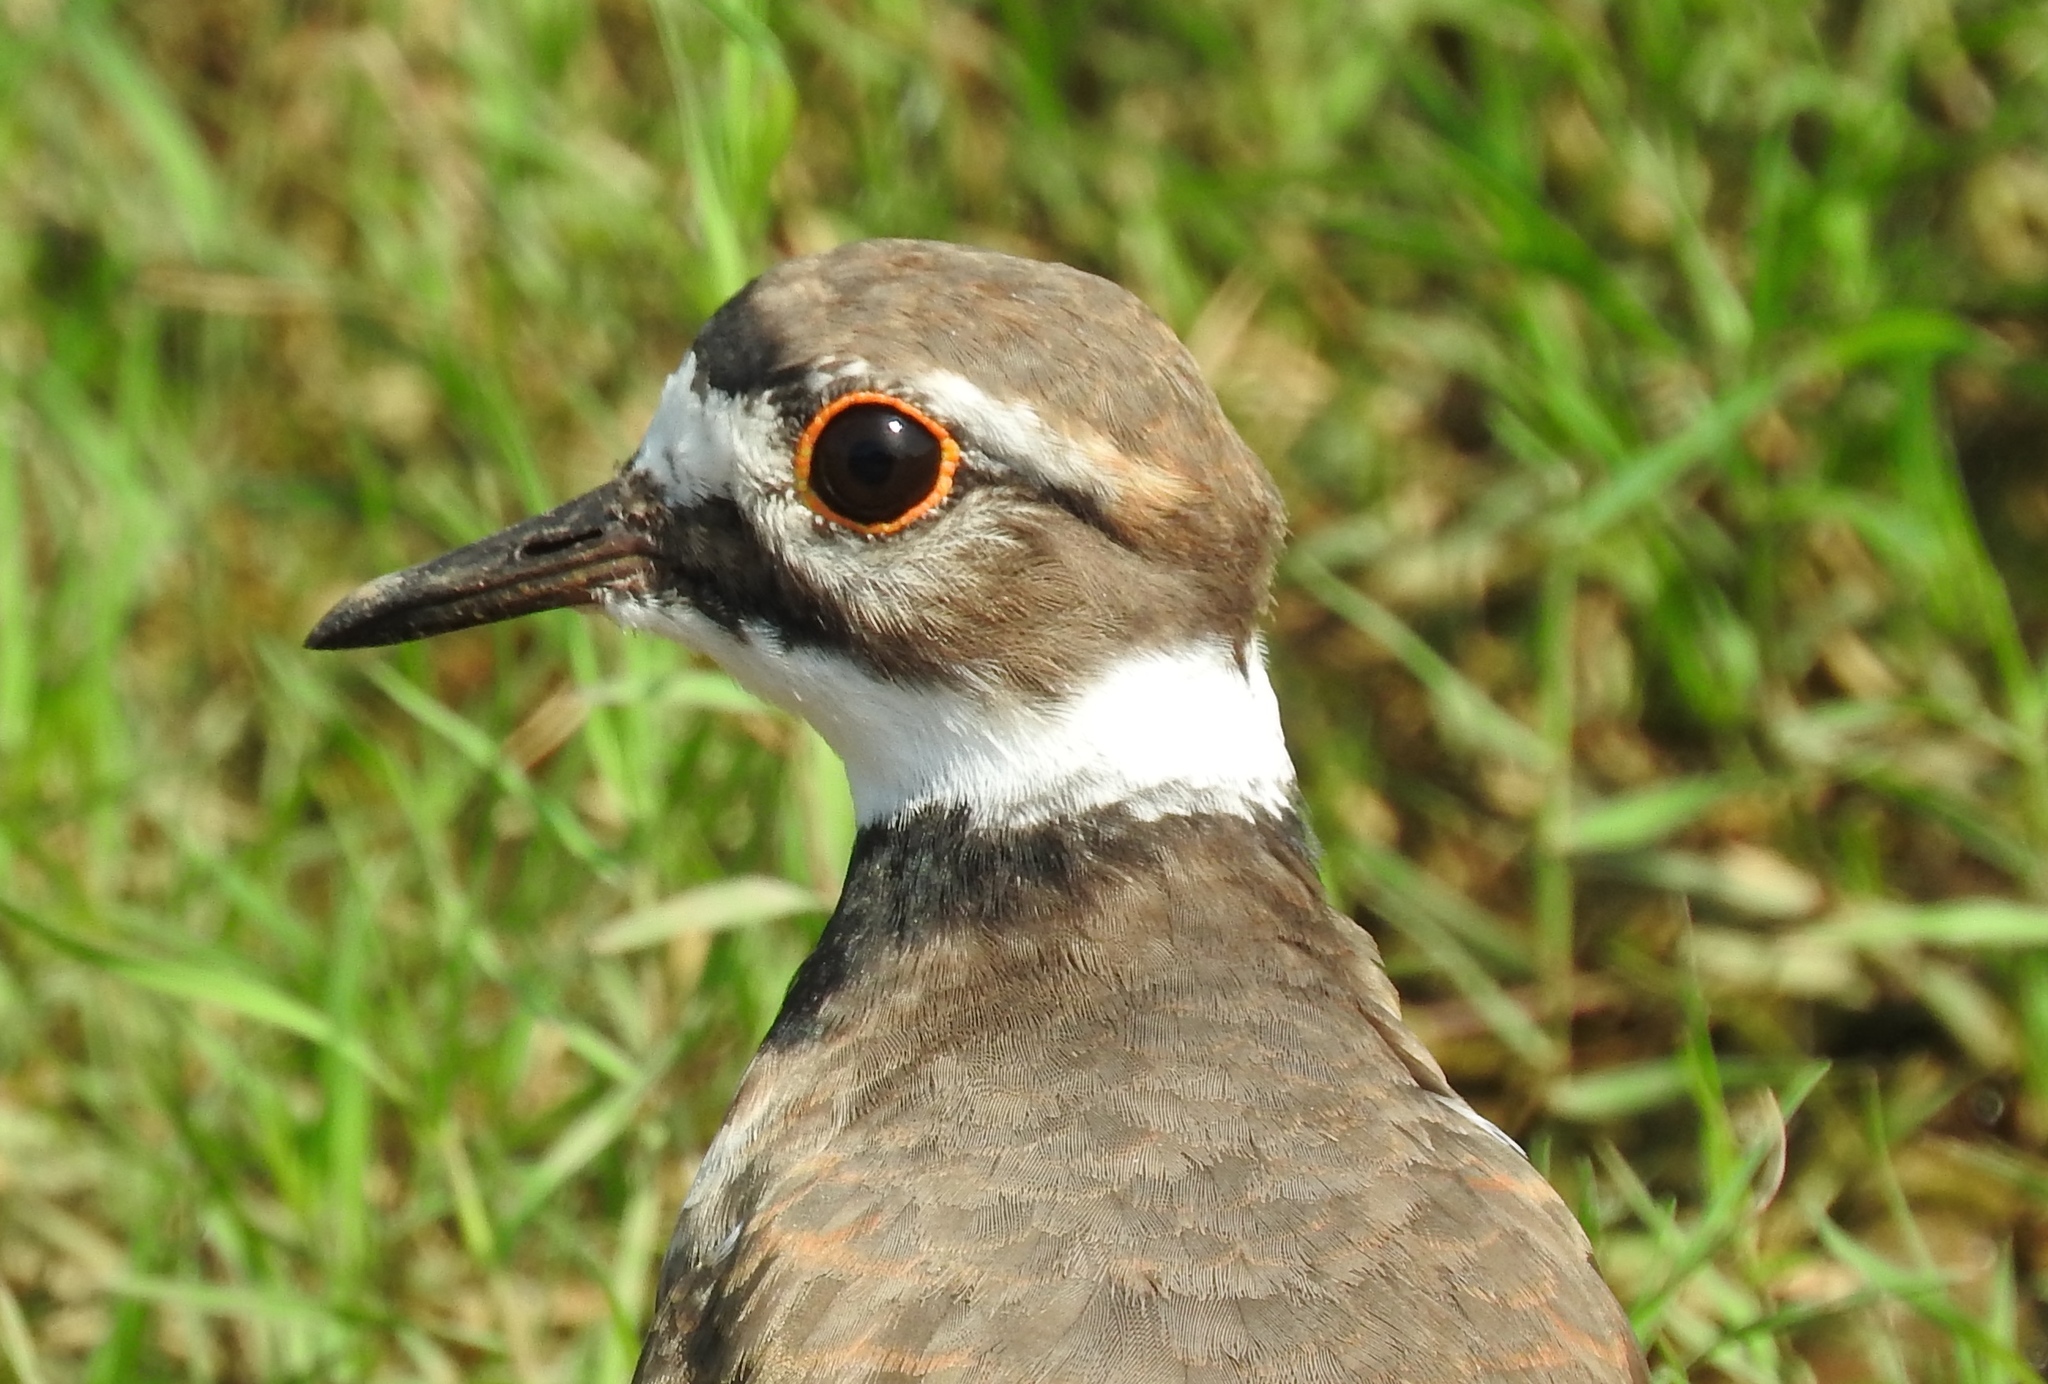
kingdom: Animalia
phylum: Chordata
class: Aves
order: Charadriiformes
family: Charadriidae
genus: Charadrius
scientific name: Charadrius vociferus
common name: Killdeer
